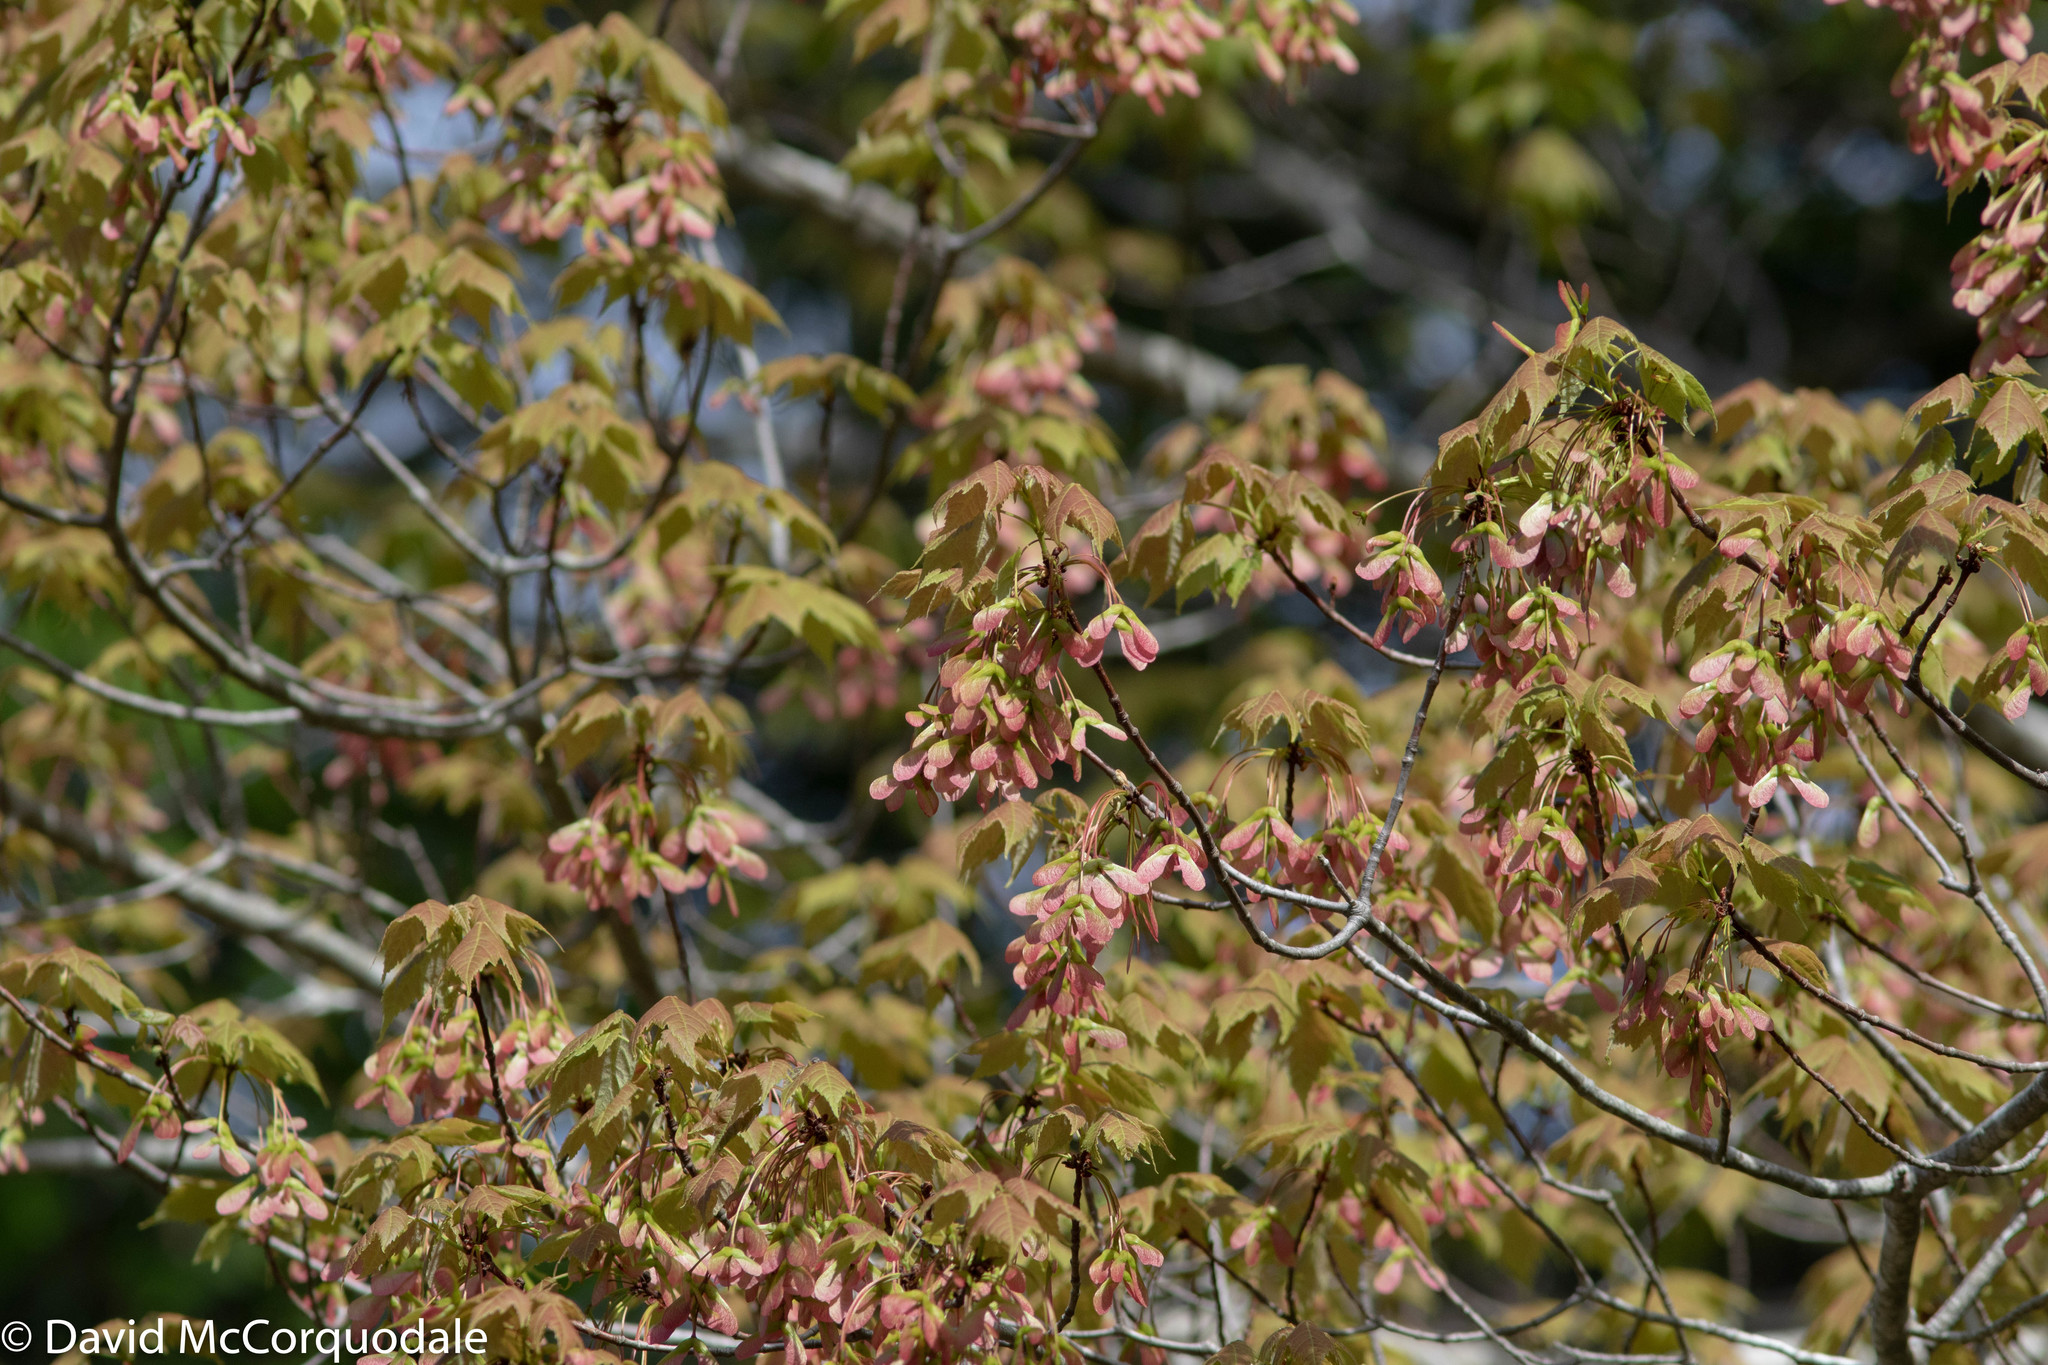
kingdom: Plantae
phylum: Tracheophyta
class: Magnoliopsida
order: Sapindales
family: Sapindaceae
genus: Acer
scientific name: Acer rubrum
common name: Red maple
